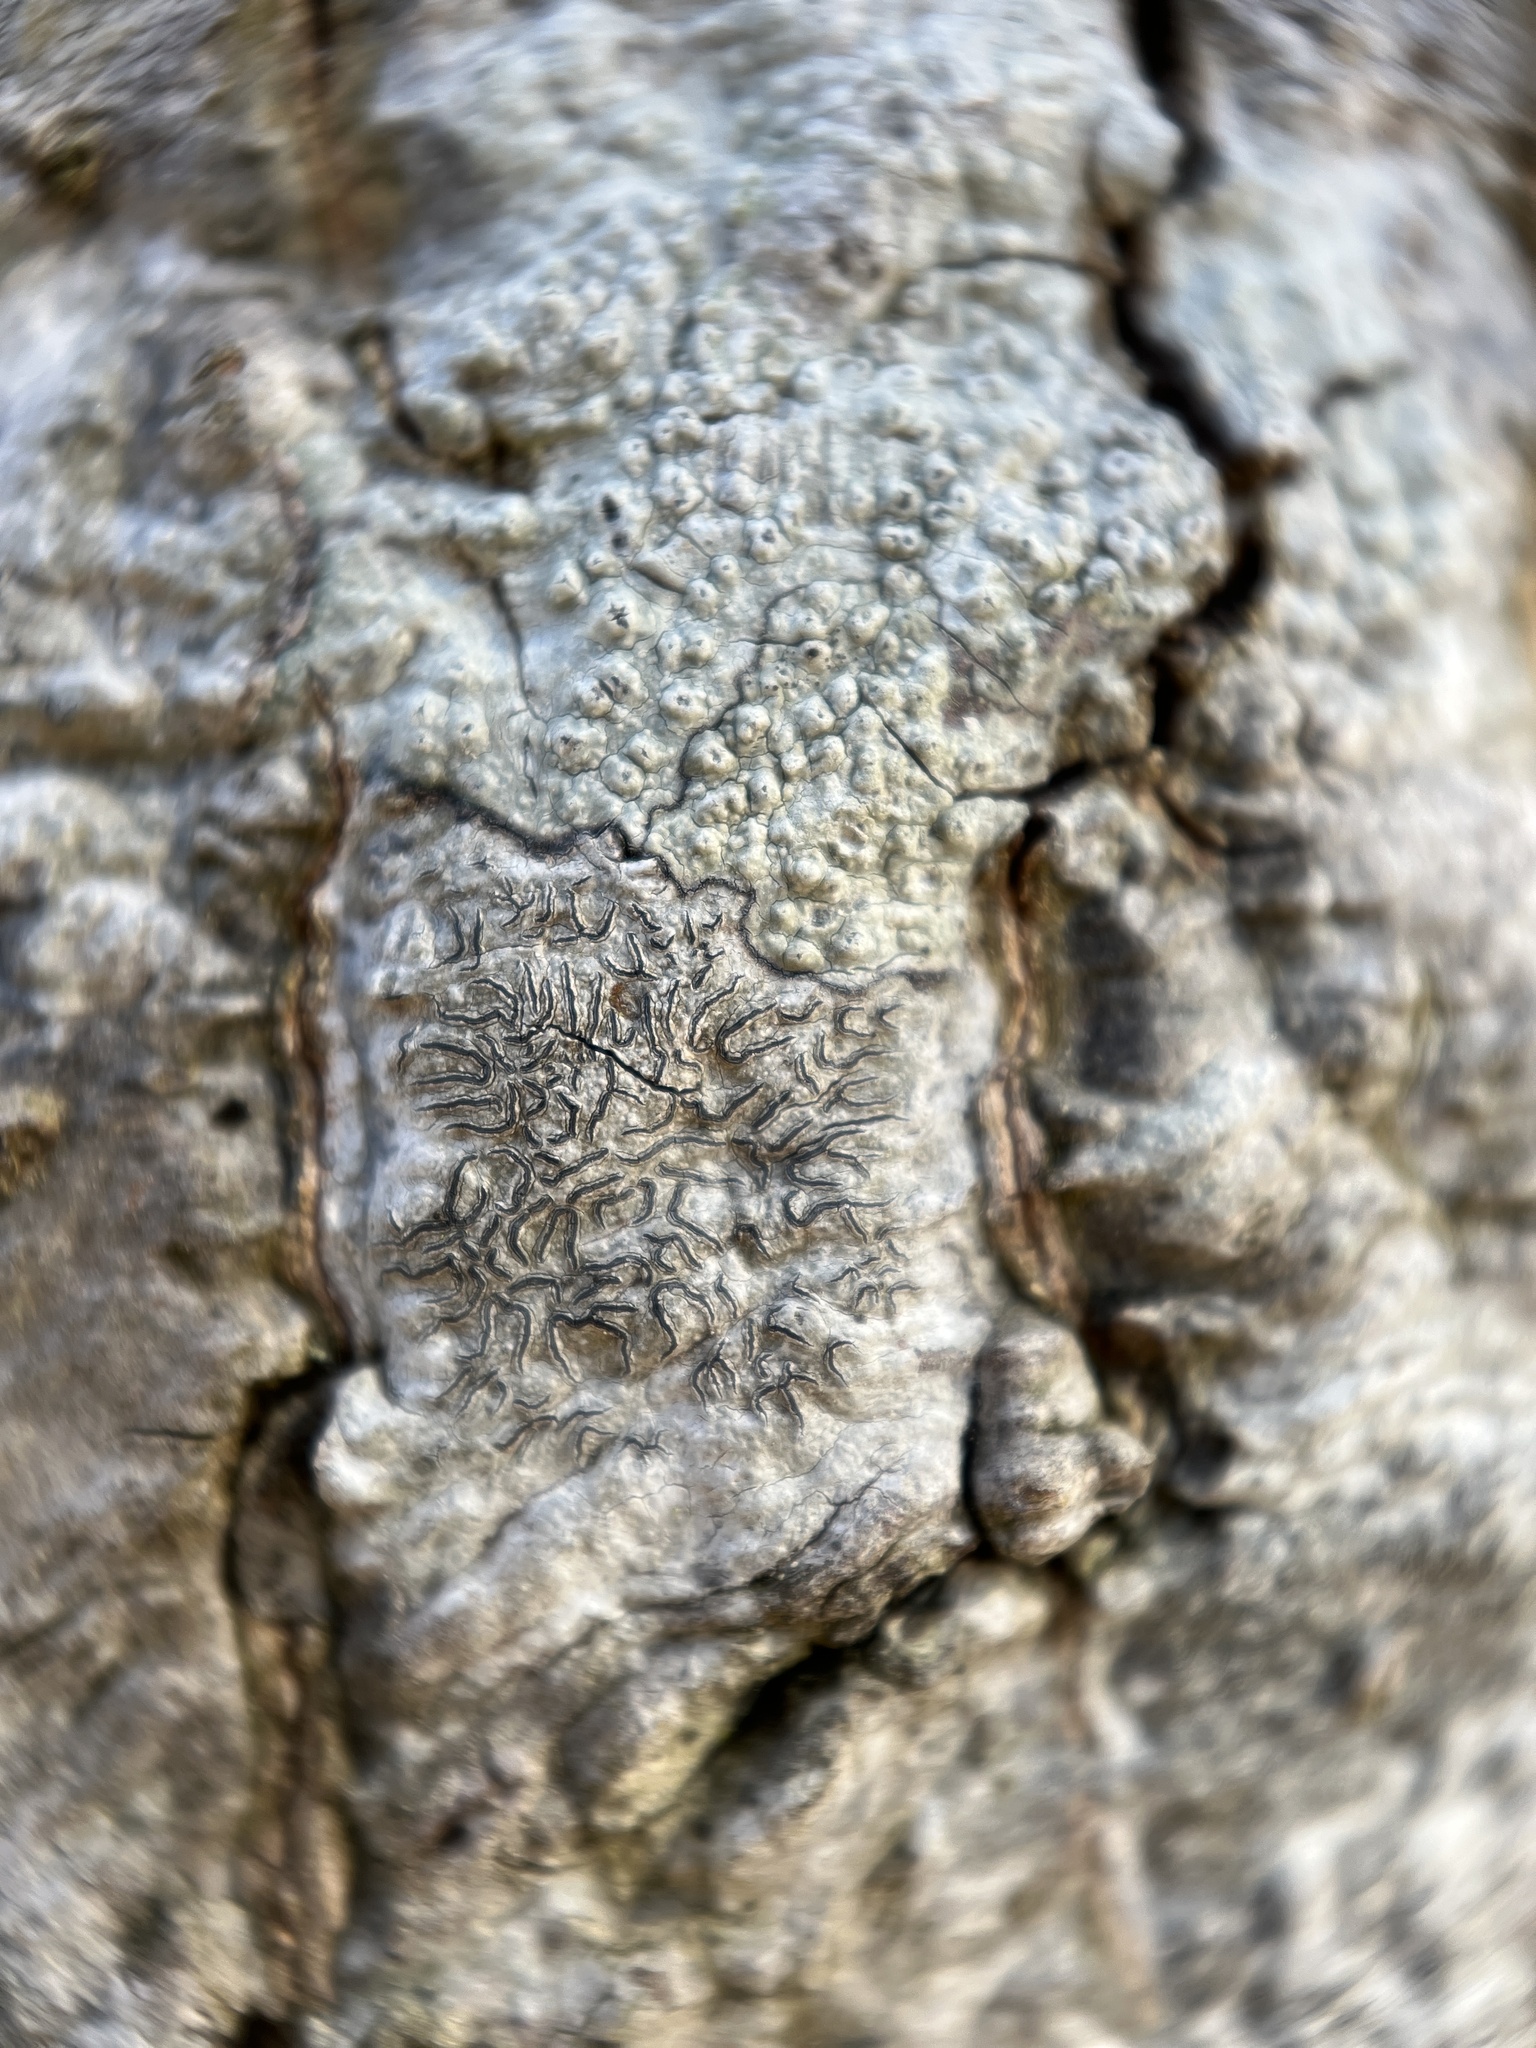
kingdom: Fungi
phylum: Ascomycota
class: Lecanoromycetes
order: Ostropales
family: Graphidaceae
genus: Graphis
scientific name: Graphis scripta
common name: Script lichen
